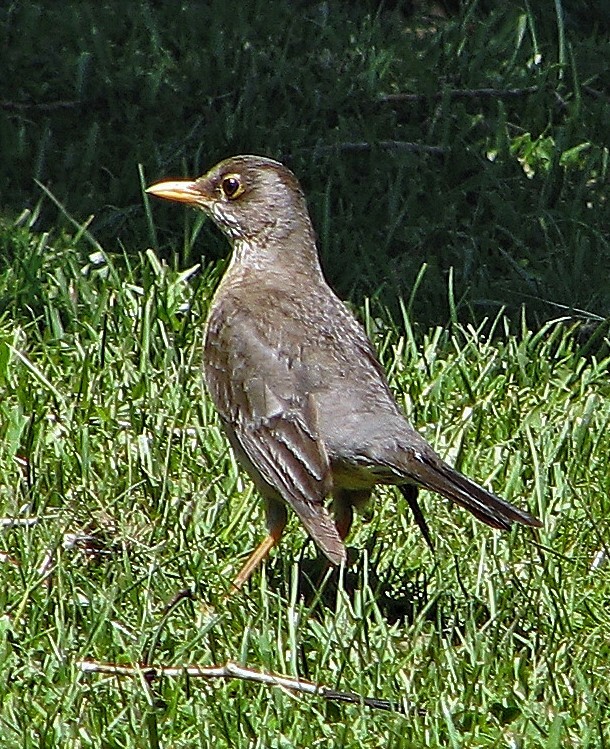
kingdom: Animalia
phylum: Chordata
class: Aves
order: Passeriformes
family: Turdidae
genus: Turdus
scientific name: Turdus falcklandii
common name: Austral thrush
